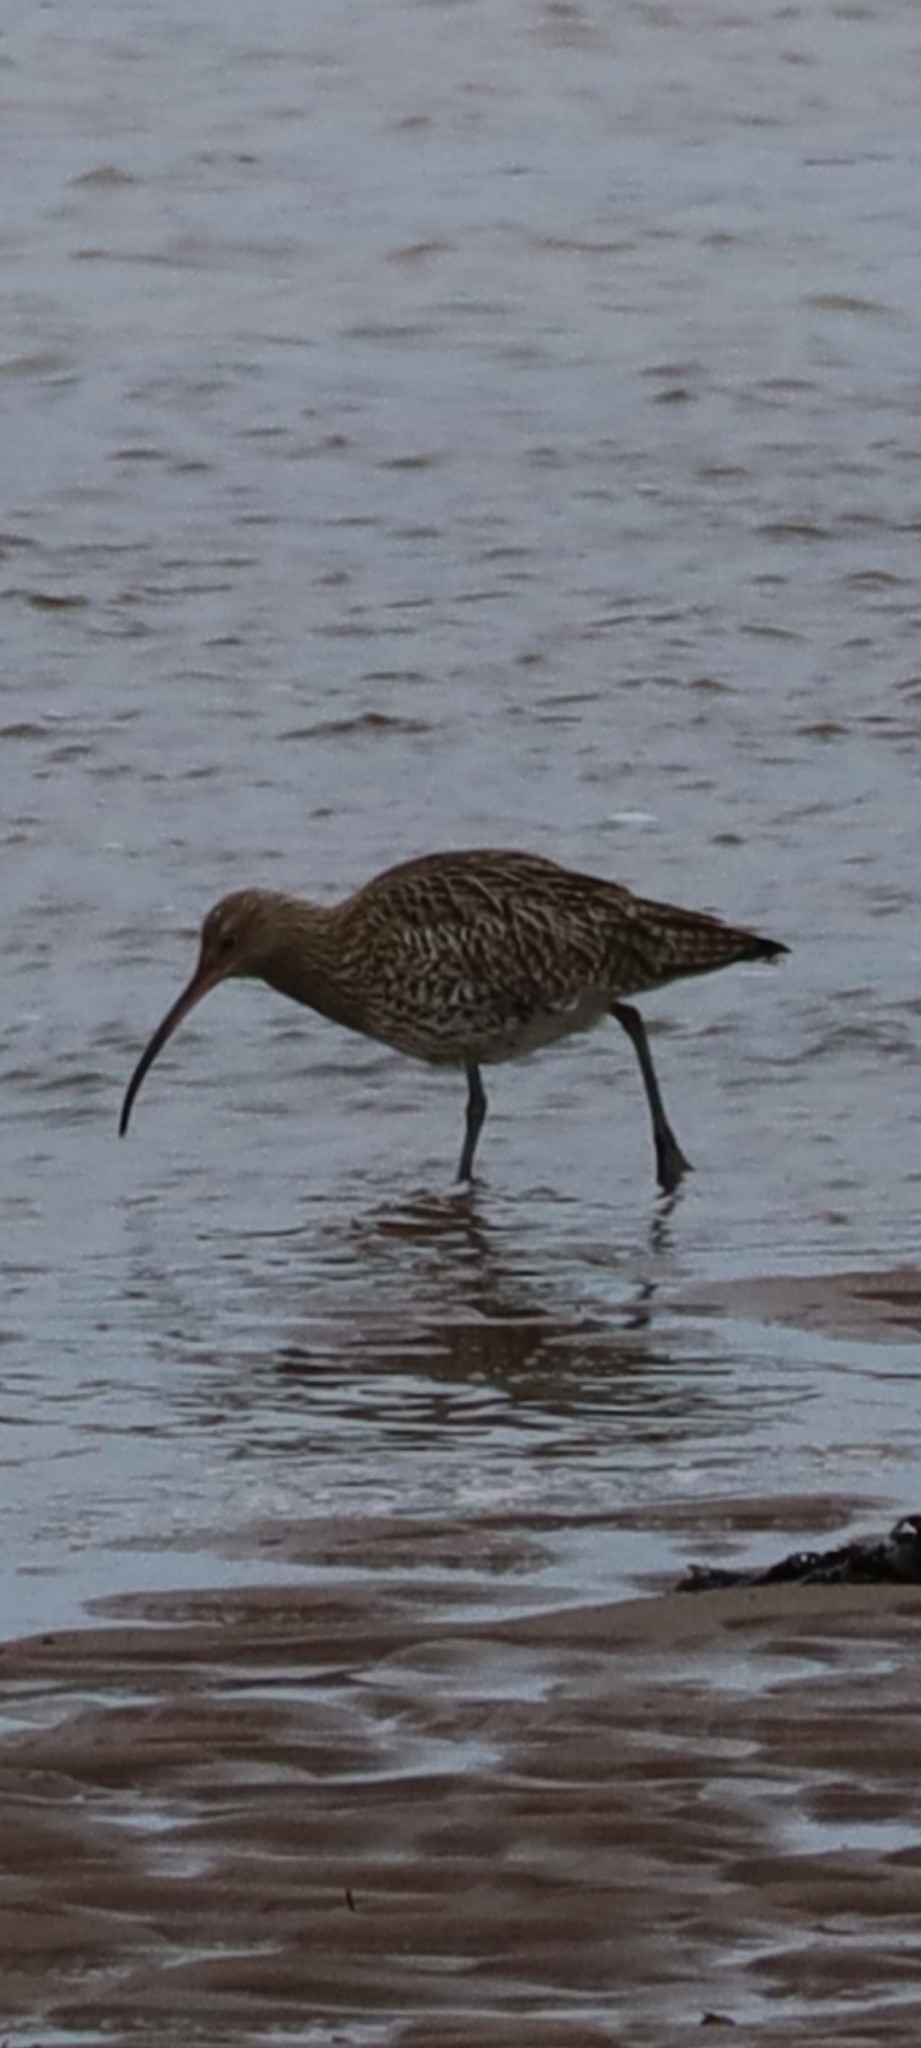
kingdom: Animalia
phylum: Chordata
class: Aves
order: Charadriiformes
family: Scolopacidae
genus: Numenius
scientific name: Numenius arquata
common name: Eurasian curlew
